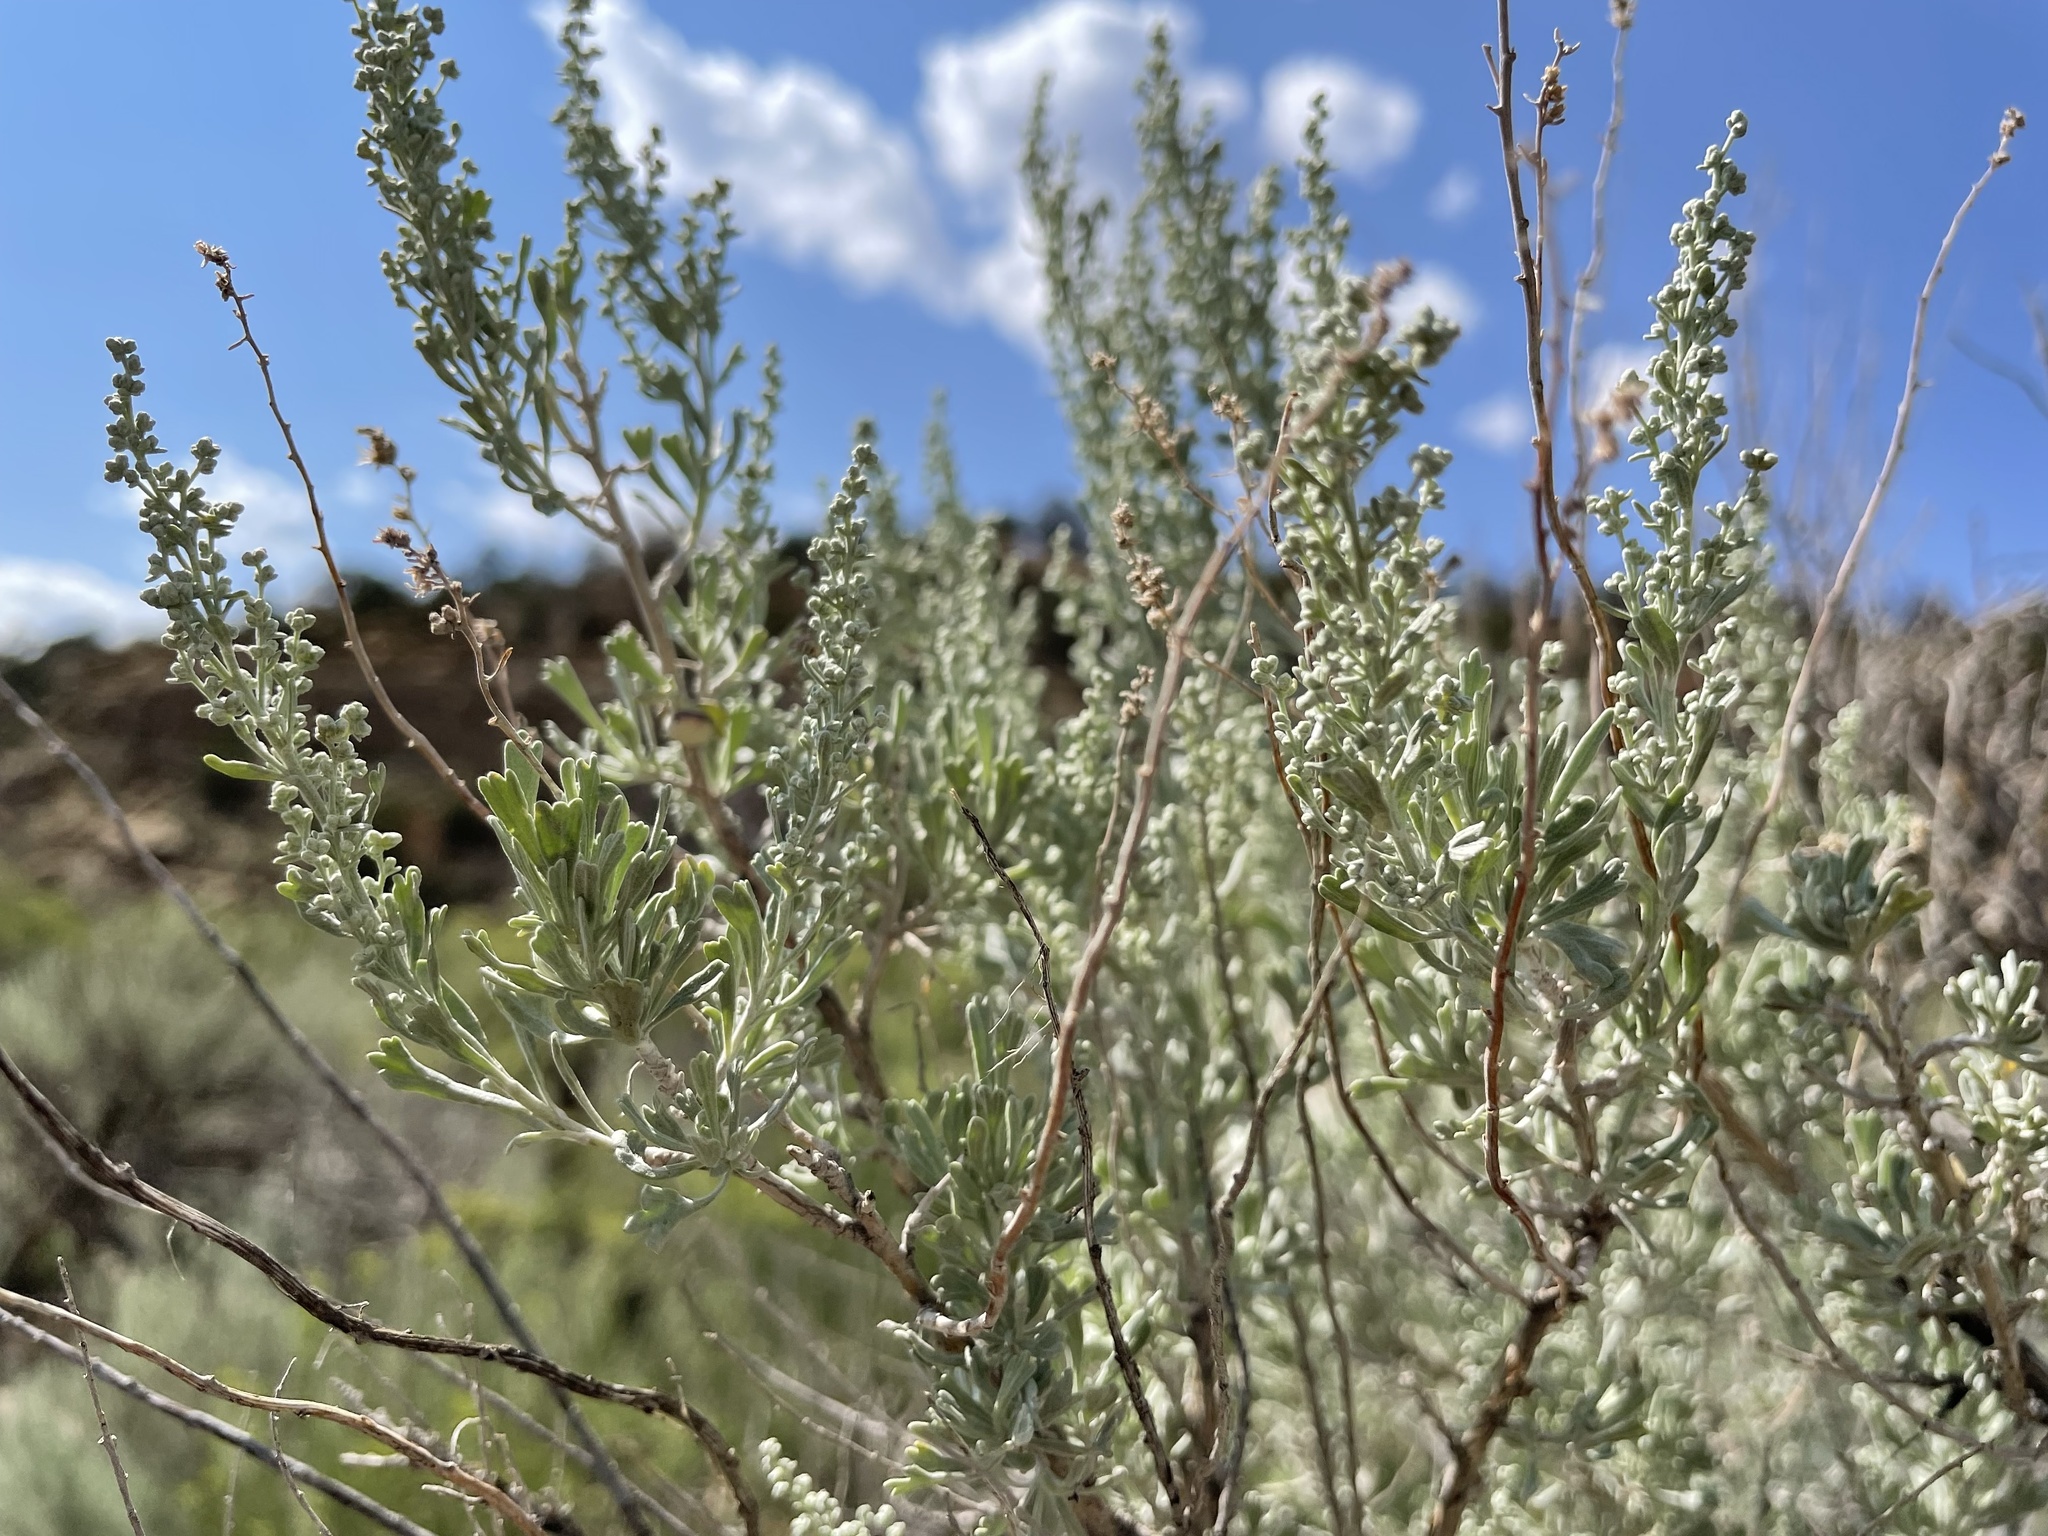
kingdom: Plantae
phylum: Tracheophyta
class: Magnoliopsida
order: Asterales
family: Asteraceae
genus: Artemisia
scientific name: Artemisia tridentata
